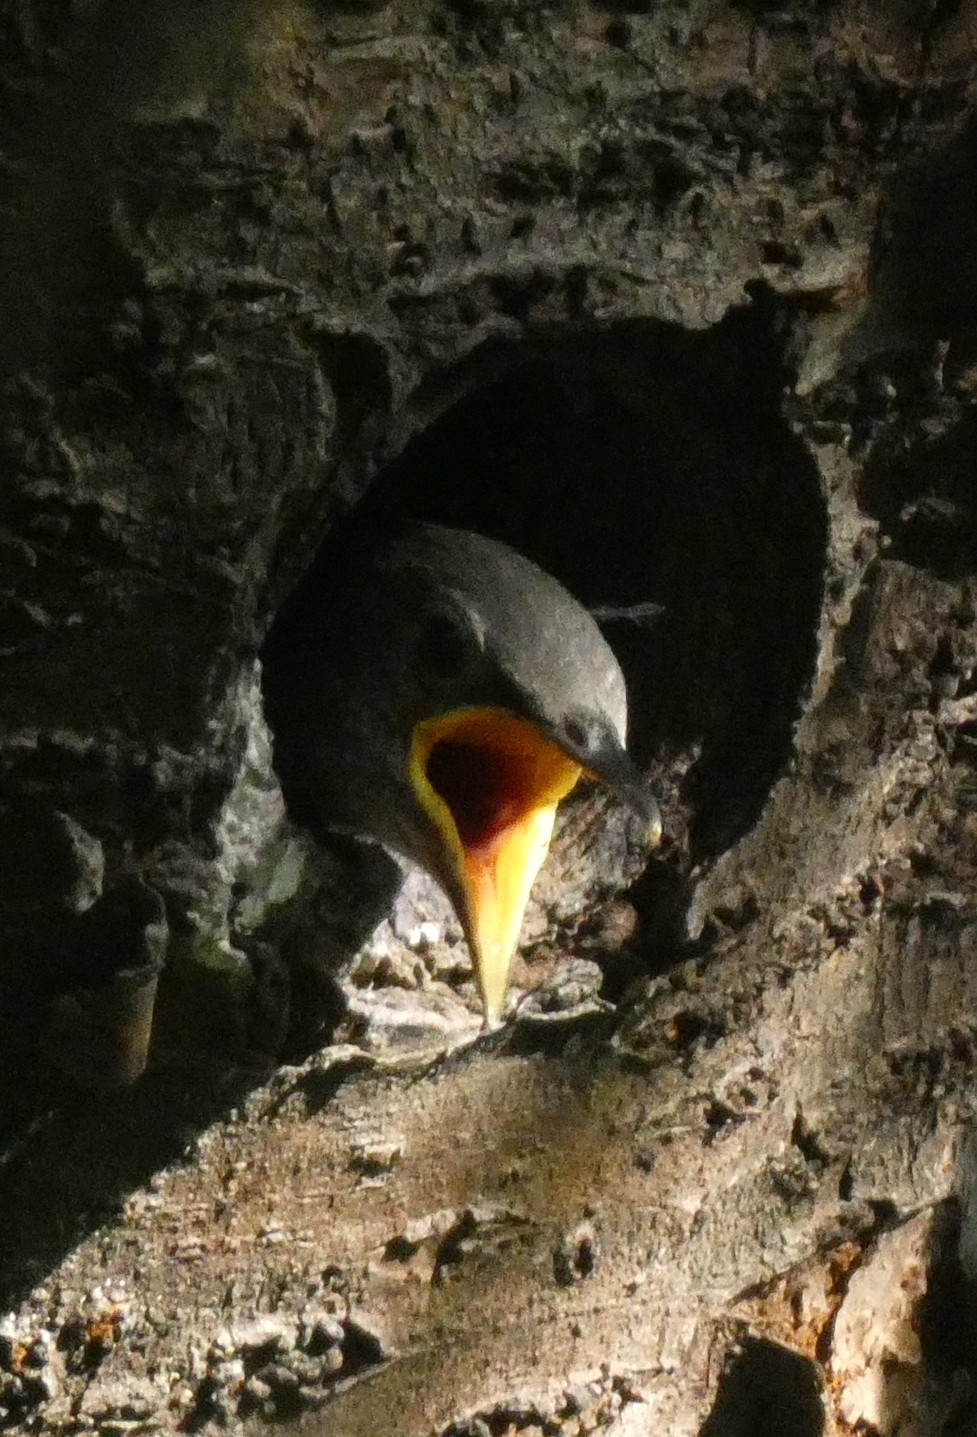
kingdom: Animalia
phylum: Chordata
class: Aves
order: Passeriformes
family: Sturnidae
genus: Sturnus
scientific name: Sturnus vulgaris
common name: Common starling
